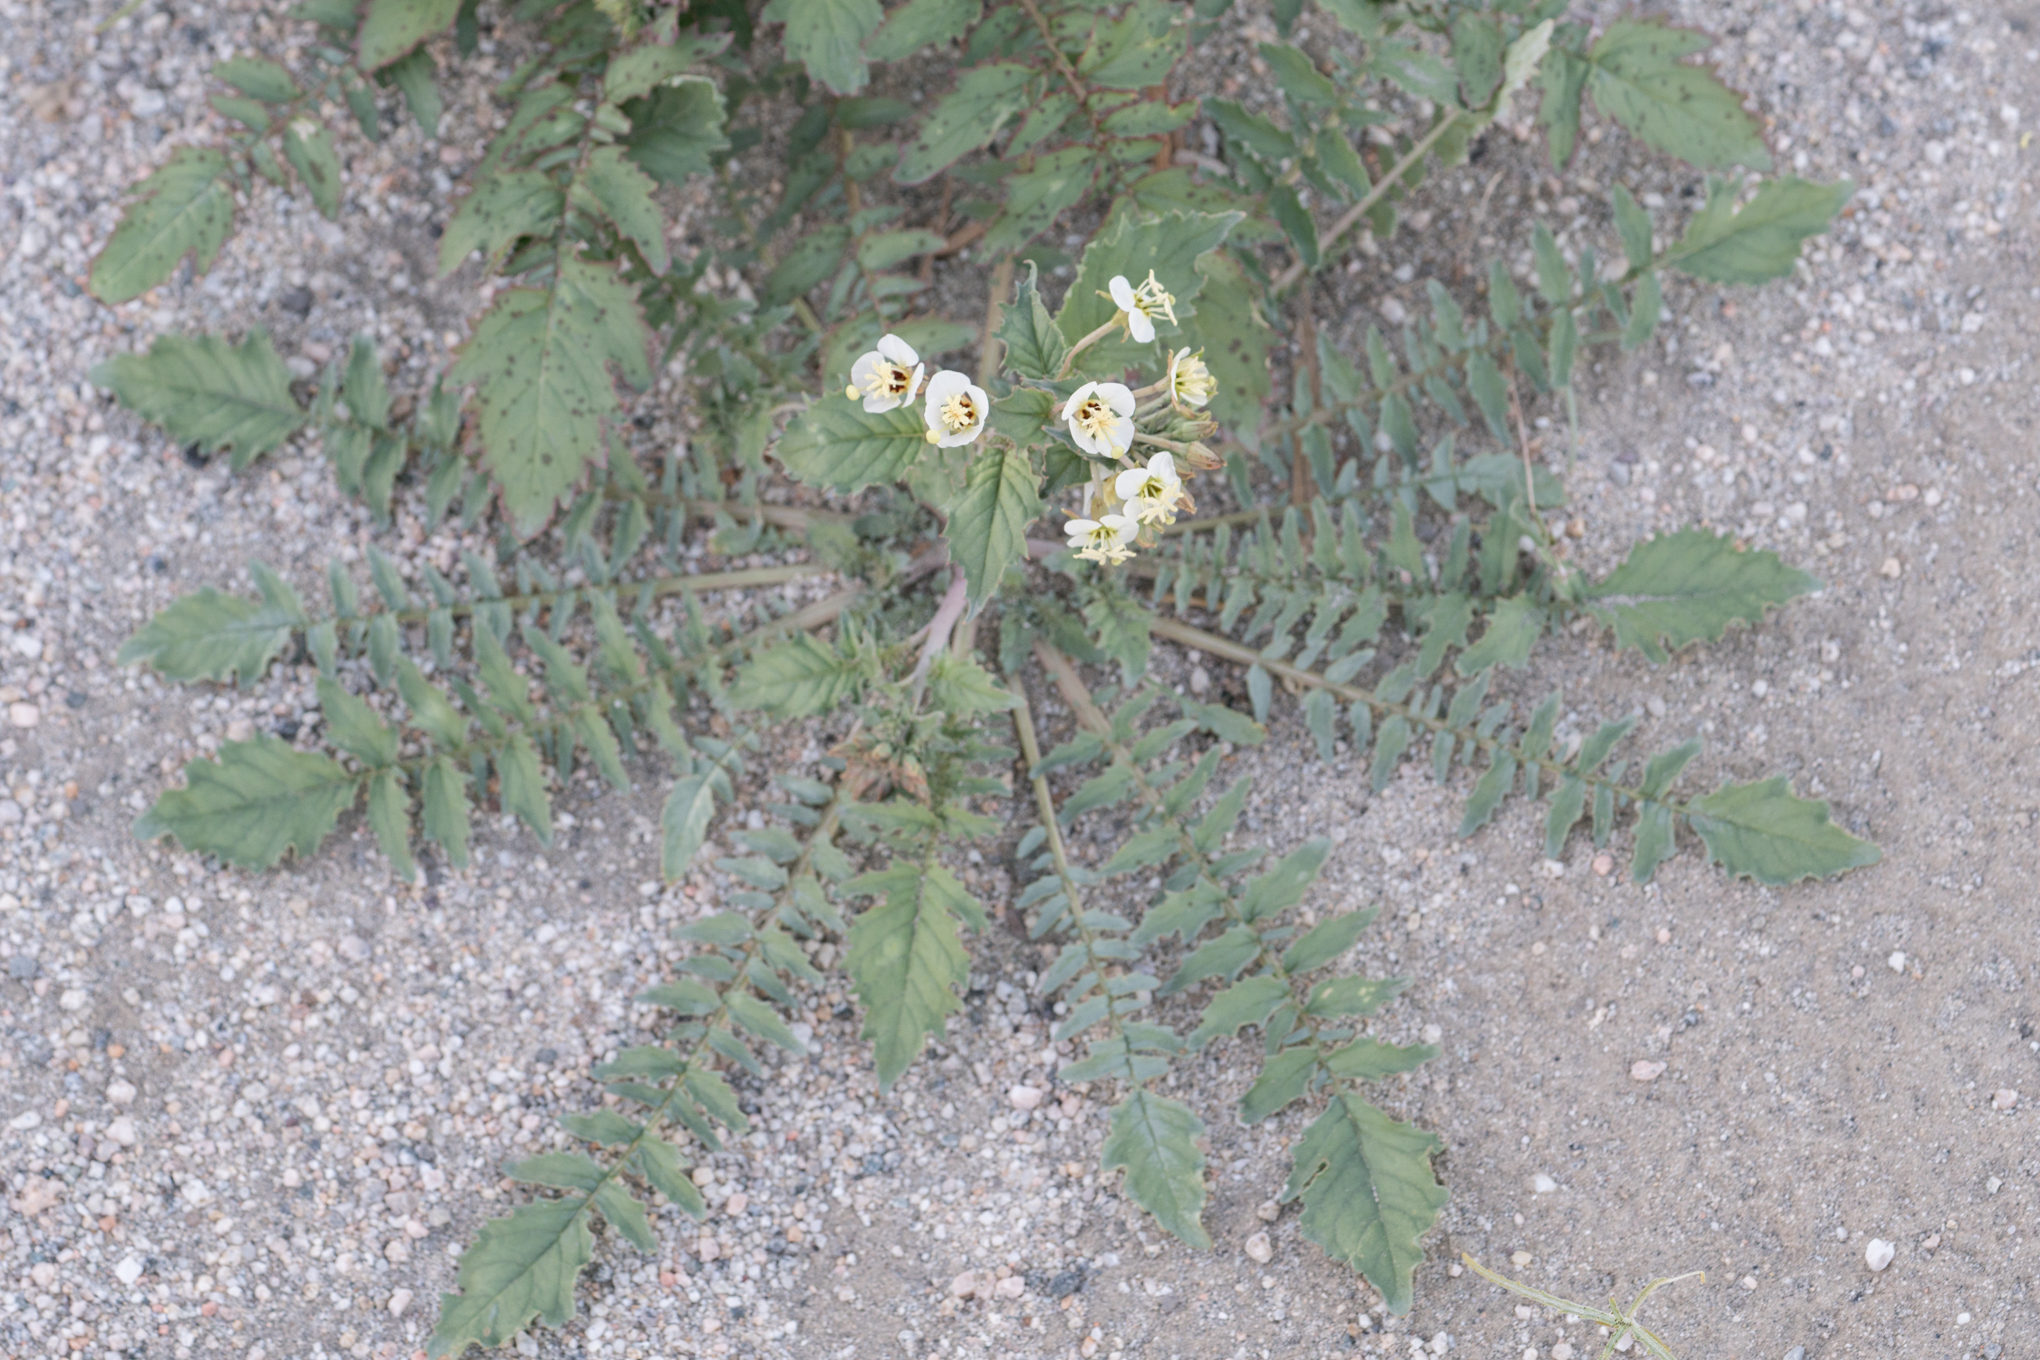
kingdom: Plantae
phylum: Tracheophyta
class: Magnoliopsida
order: Myrtales
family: Onagraceae
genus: Chylismia
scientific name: Chylismia claviformis
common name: Browneyes
